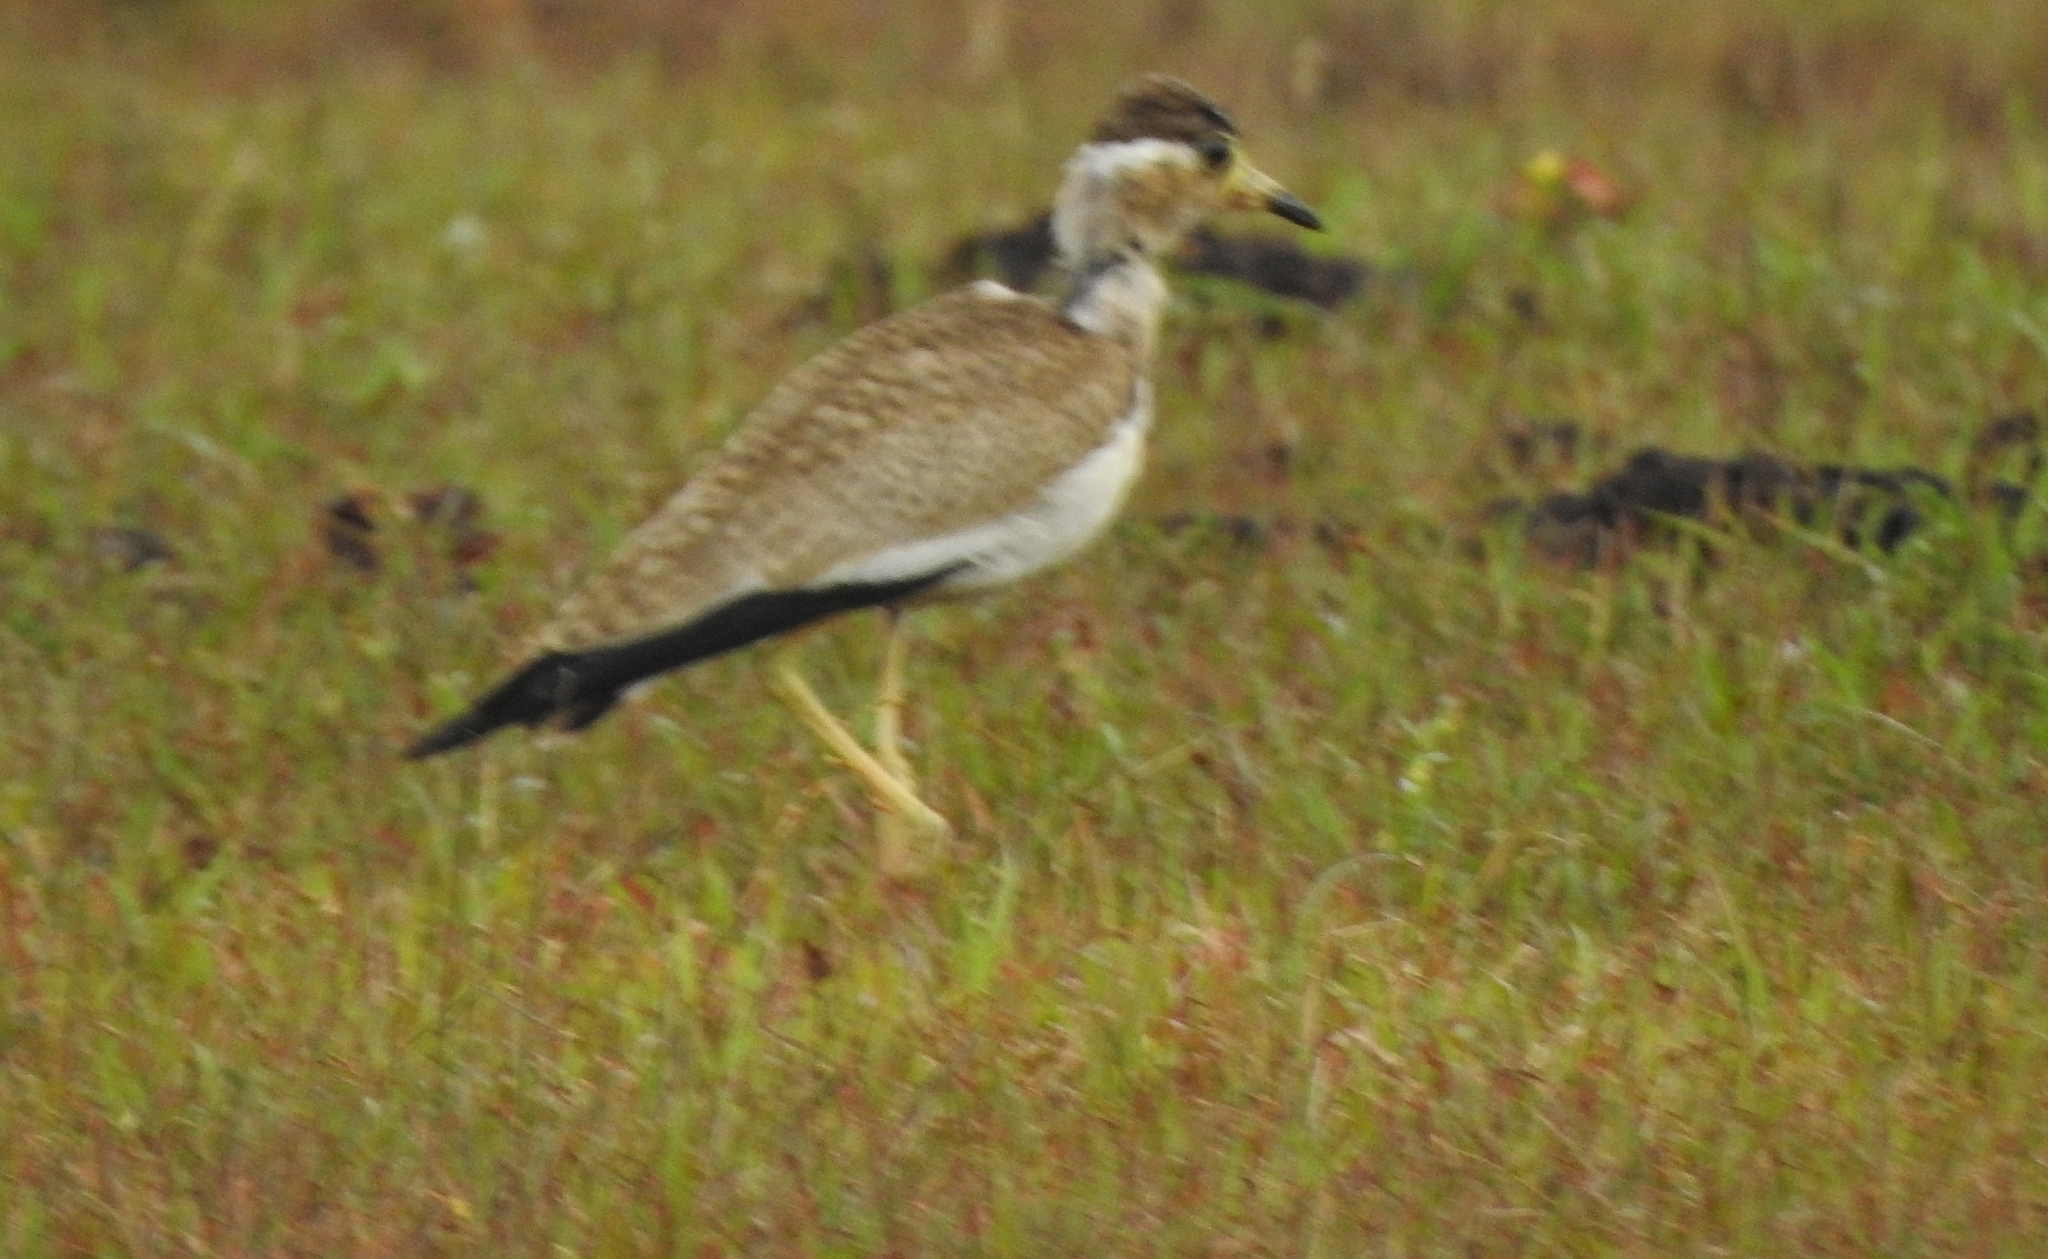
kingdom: Animalia
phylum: Chordata
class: Aves
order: Charadriiformes
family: Charadriidae
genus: Vanellus
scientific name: Vanellus malabaricus
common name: Yellow-wattled lapwing
